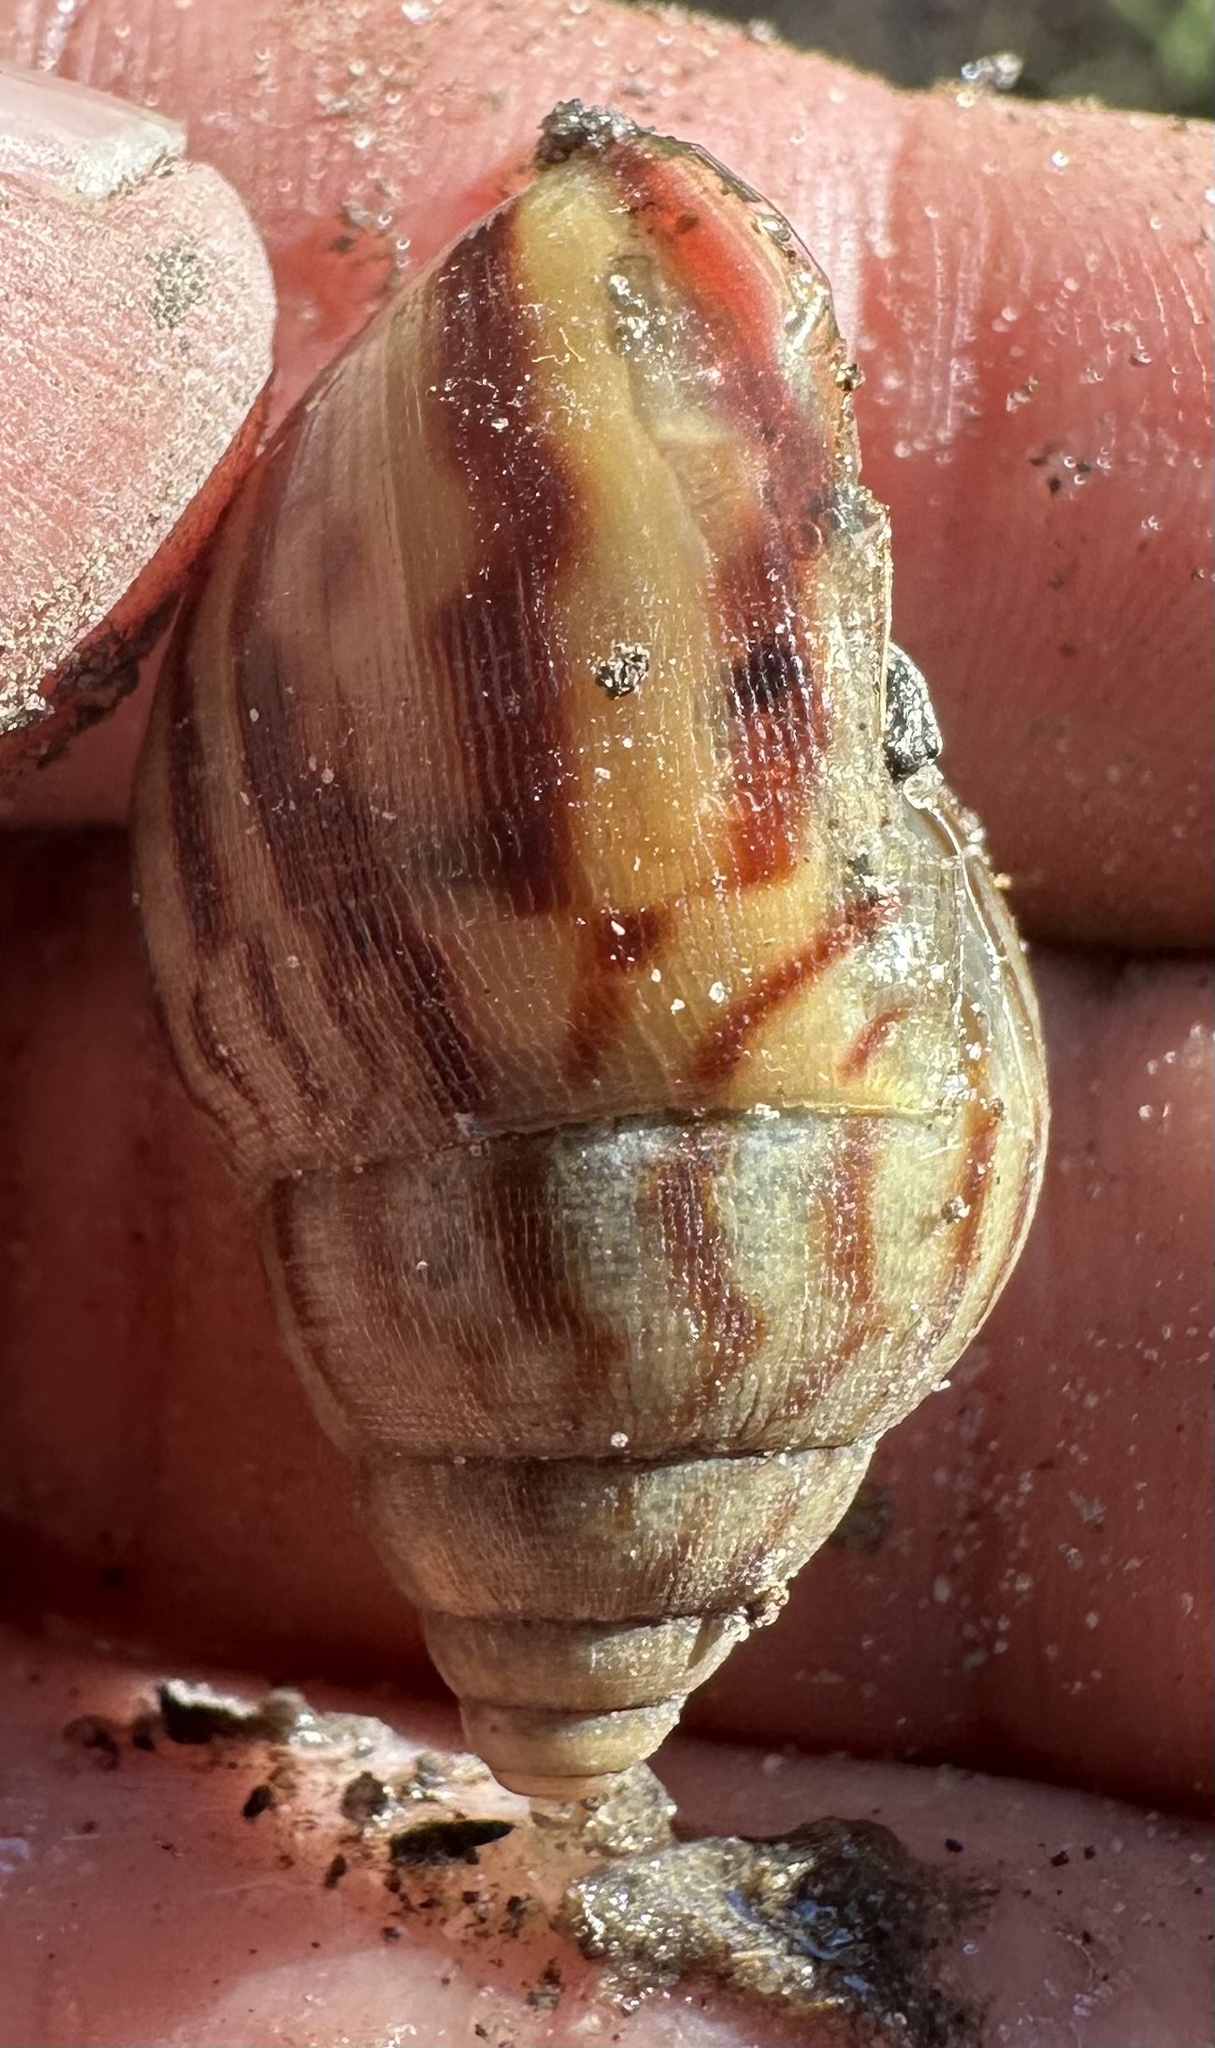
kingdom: Animalia
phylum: Mollusca
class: Gastropoda
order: Stylommatophora
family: Achatinidae
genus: Lissachatina
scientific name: Lissachatina immaculata
